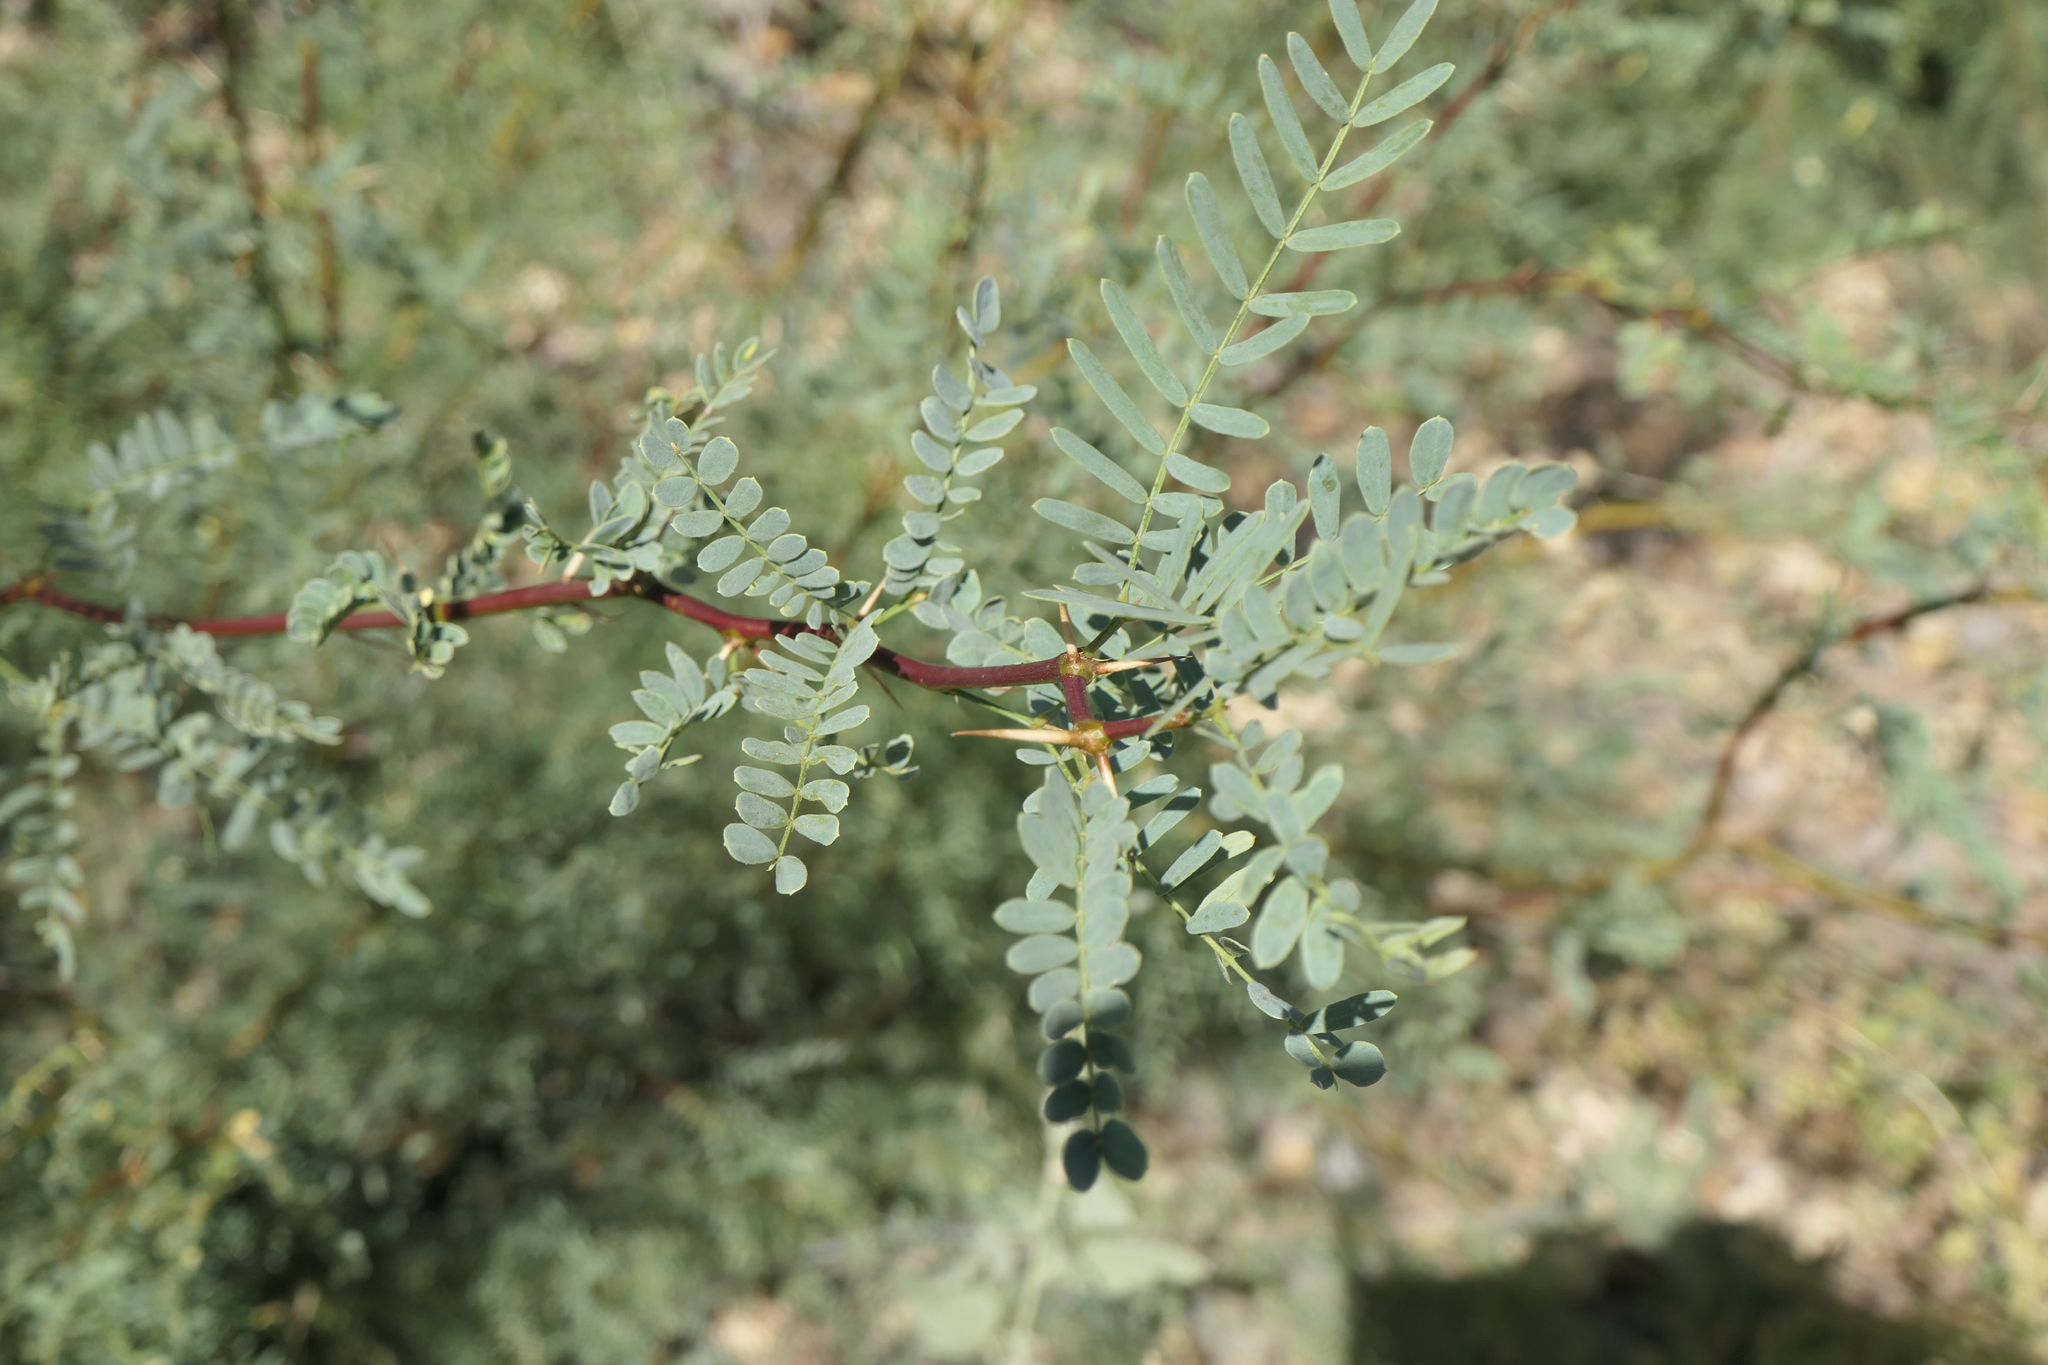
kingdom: Plantae
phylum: Tracheophyta
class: Magnoliopsida
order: Fabales
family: Fabaceae
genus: Prosopis
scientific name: Prosopis pubescens
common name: Screw-bean
